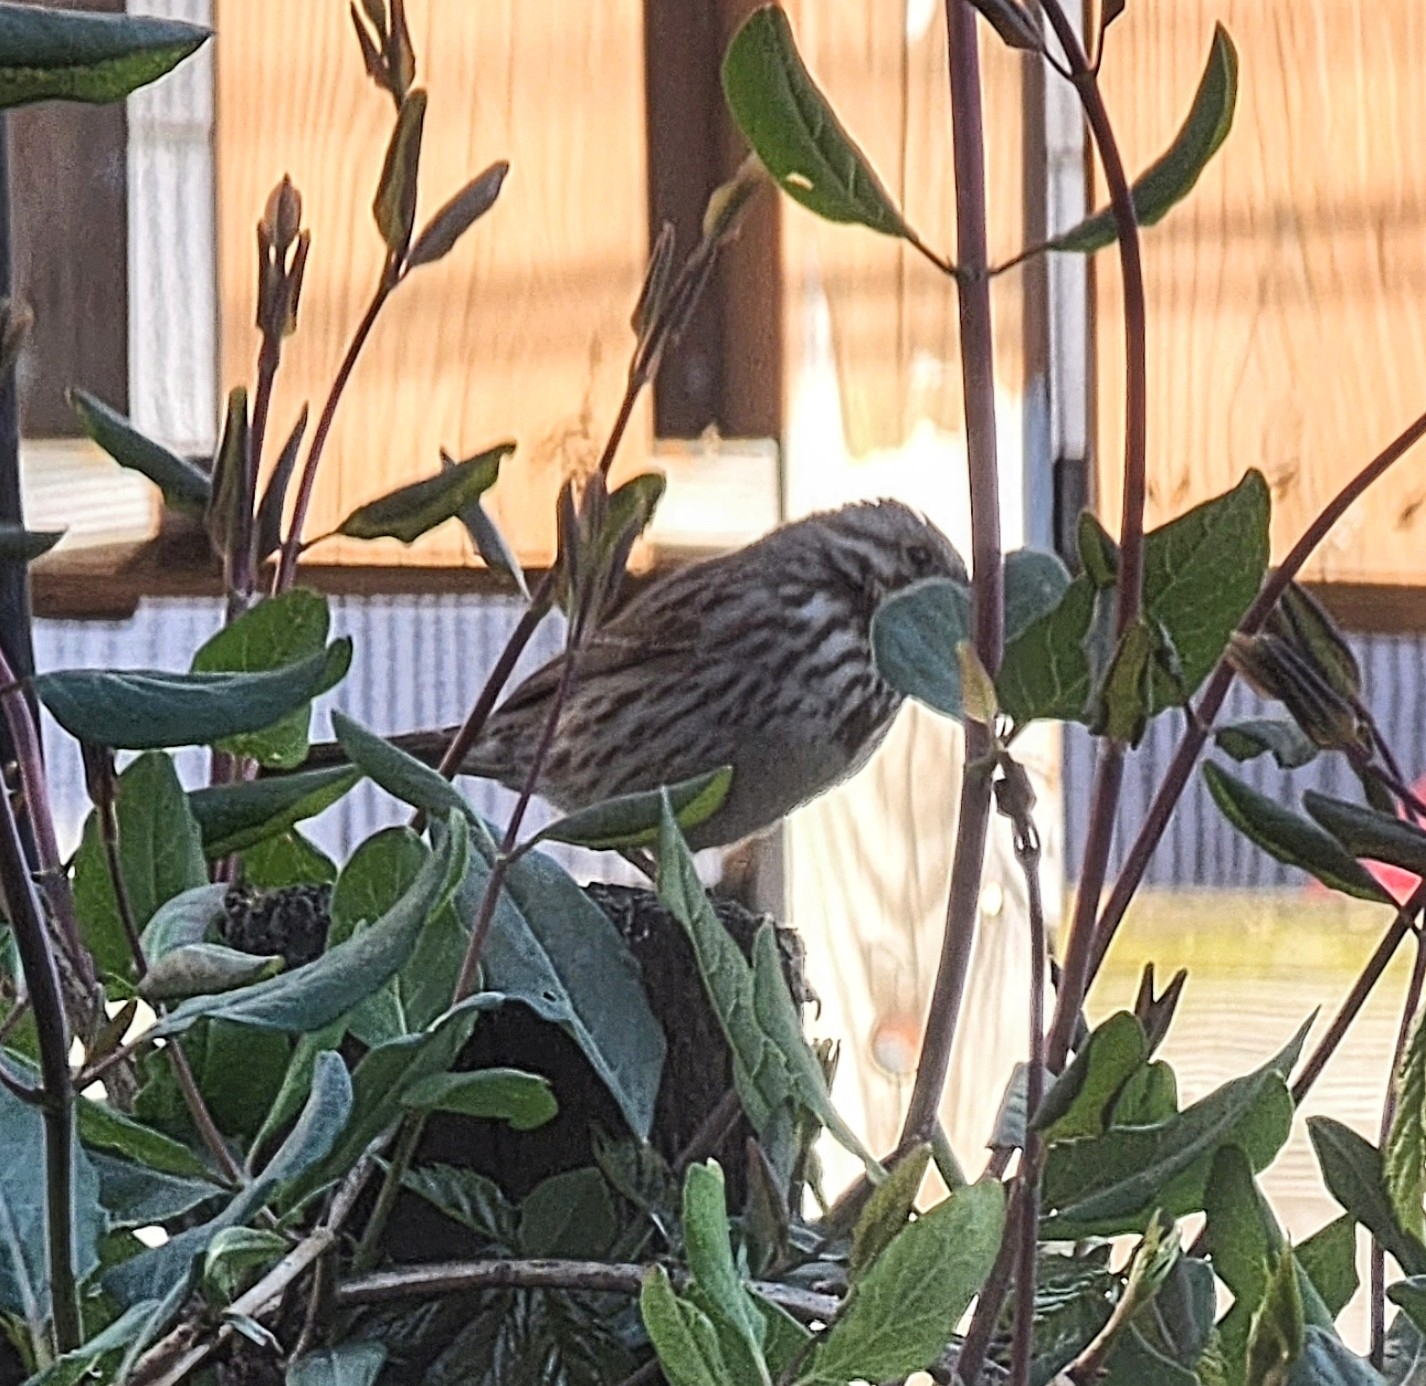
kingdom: Animalia
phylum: Chordata
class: Aves
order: Passeriformes
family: Passerellidae
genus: Melospiza
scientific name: Melospiza melodia
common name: Song sparrow
